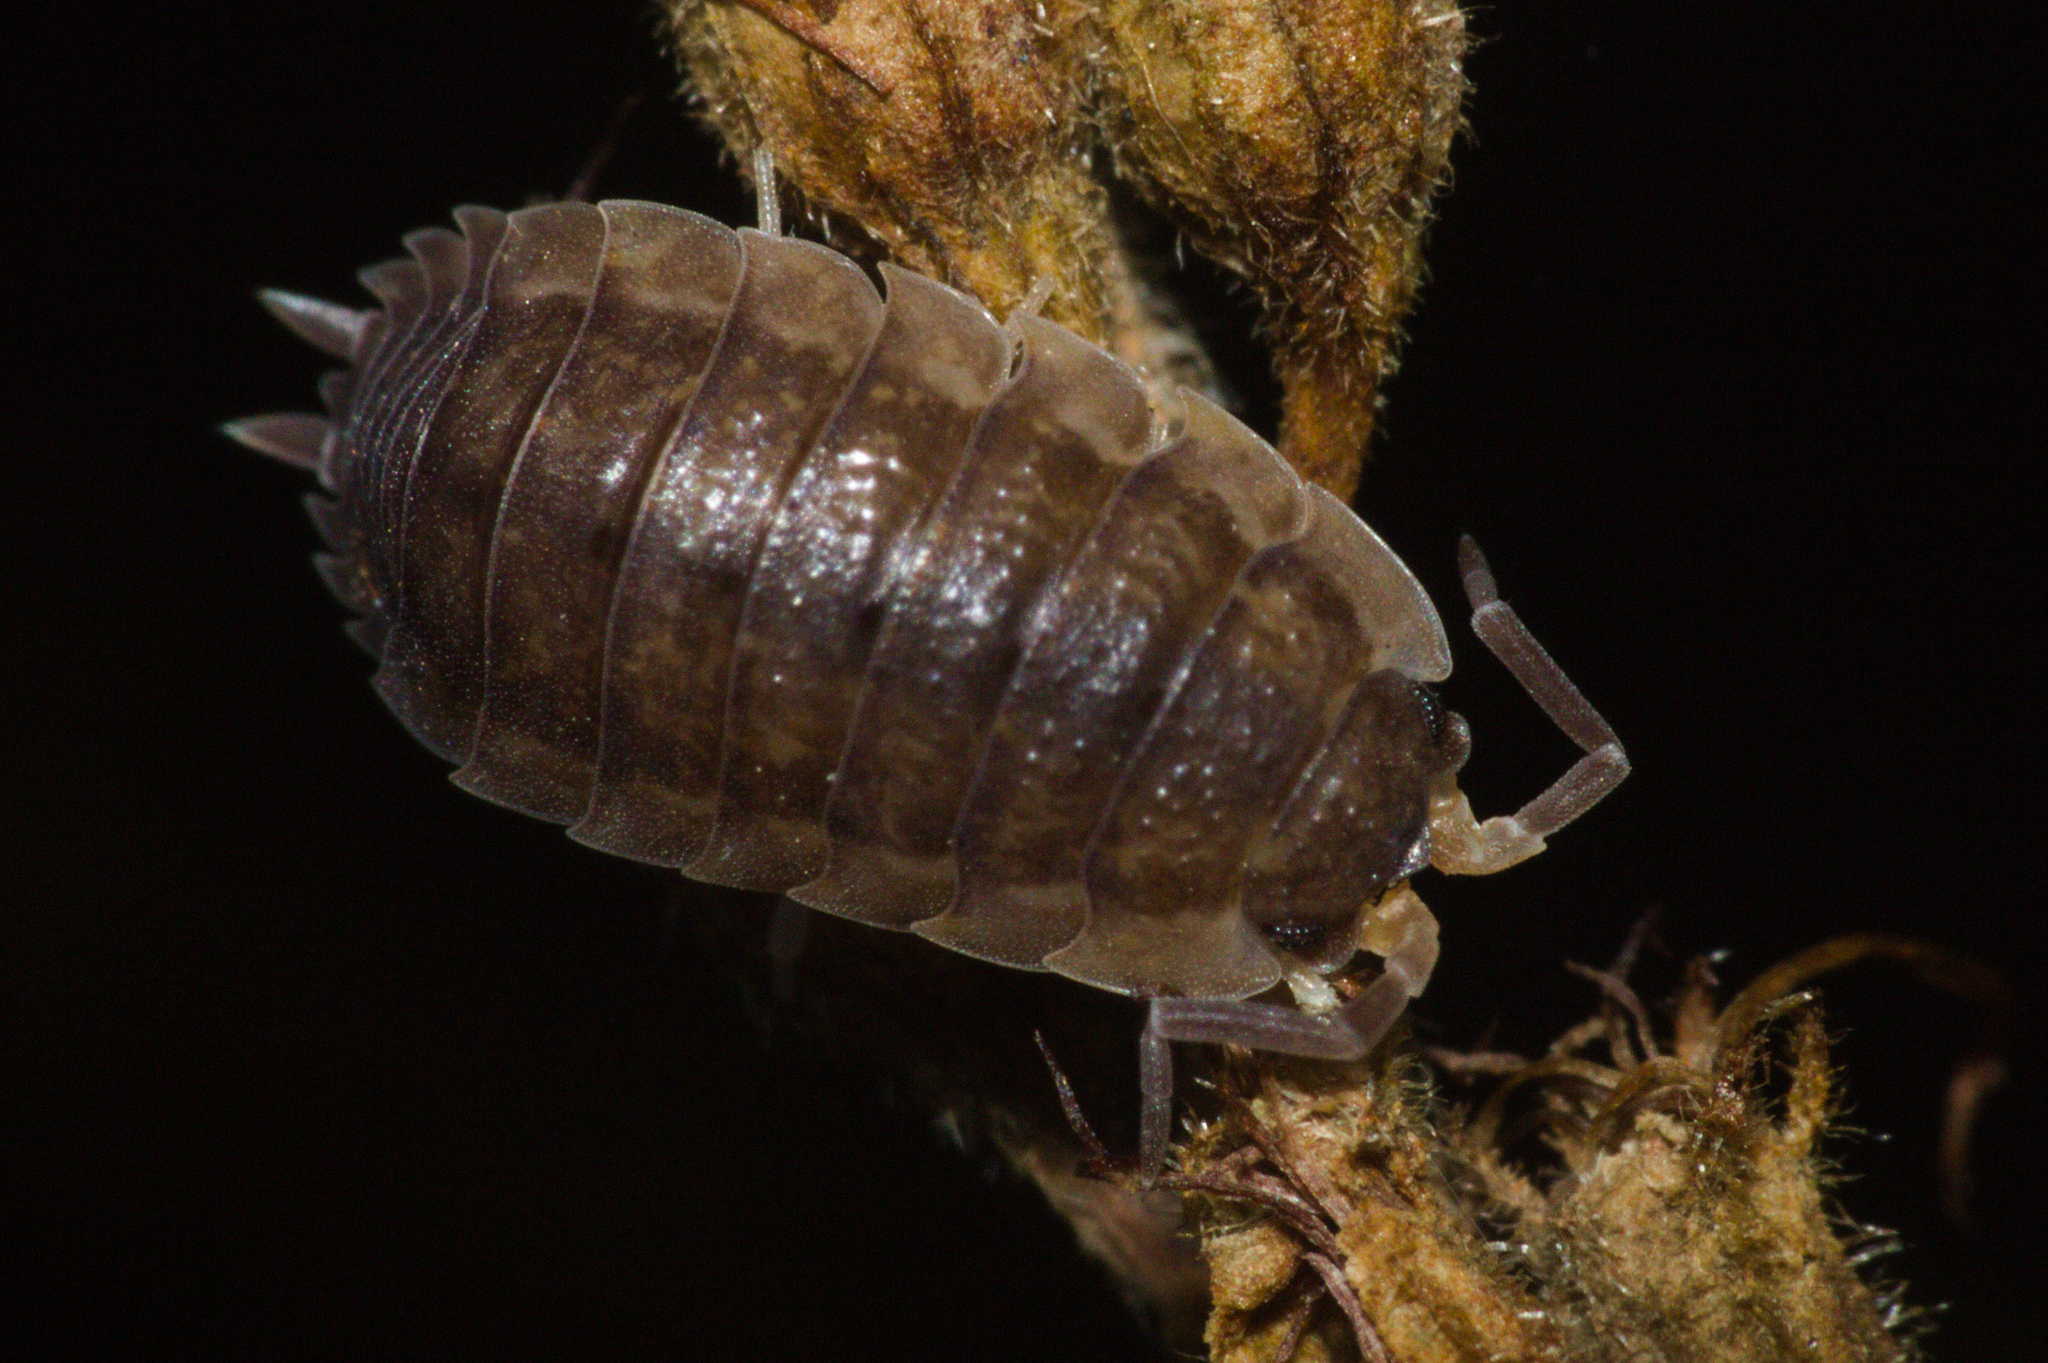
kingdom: Animalia
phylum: Arthropoda
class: Malacostraca
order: Isopoda
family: Porcellionidae
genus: Porcellio
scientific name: Porcellio scaber
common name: Common rough woodlouse
